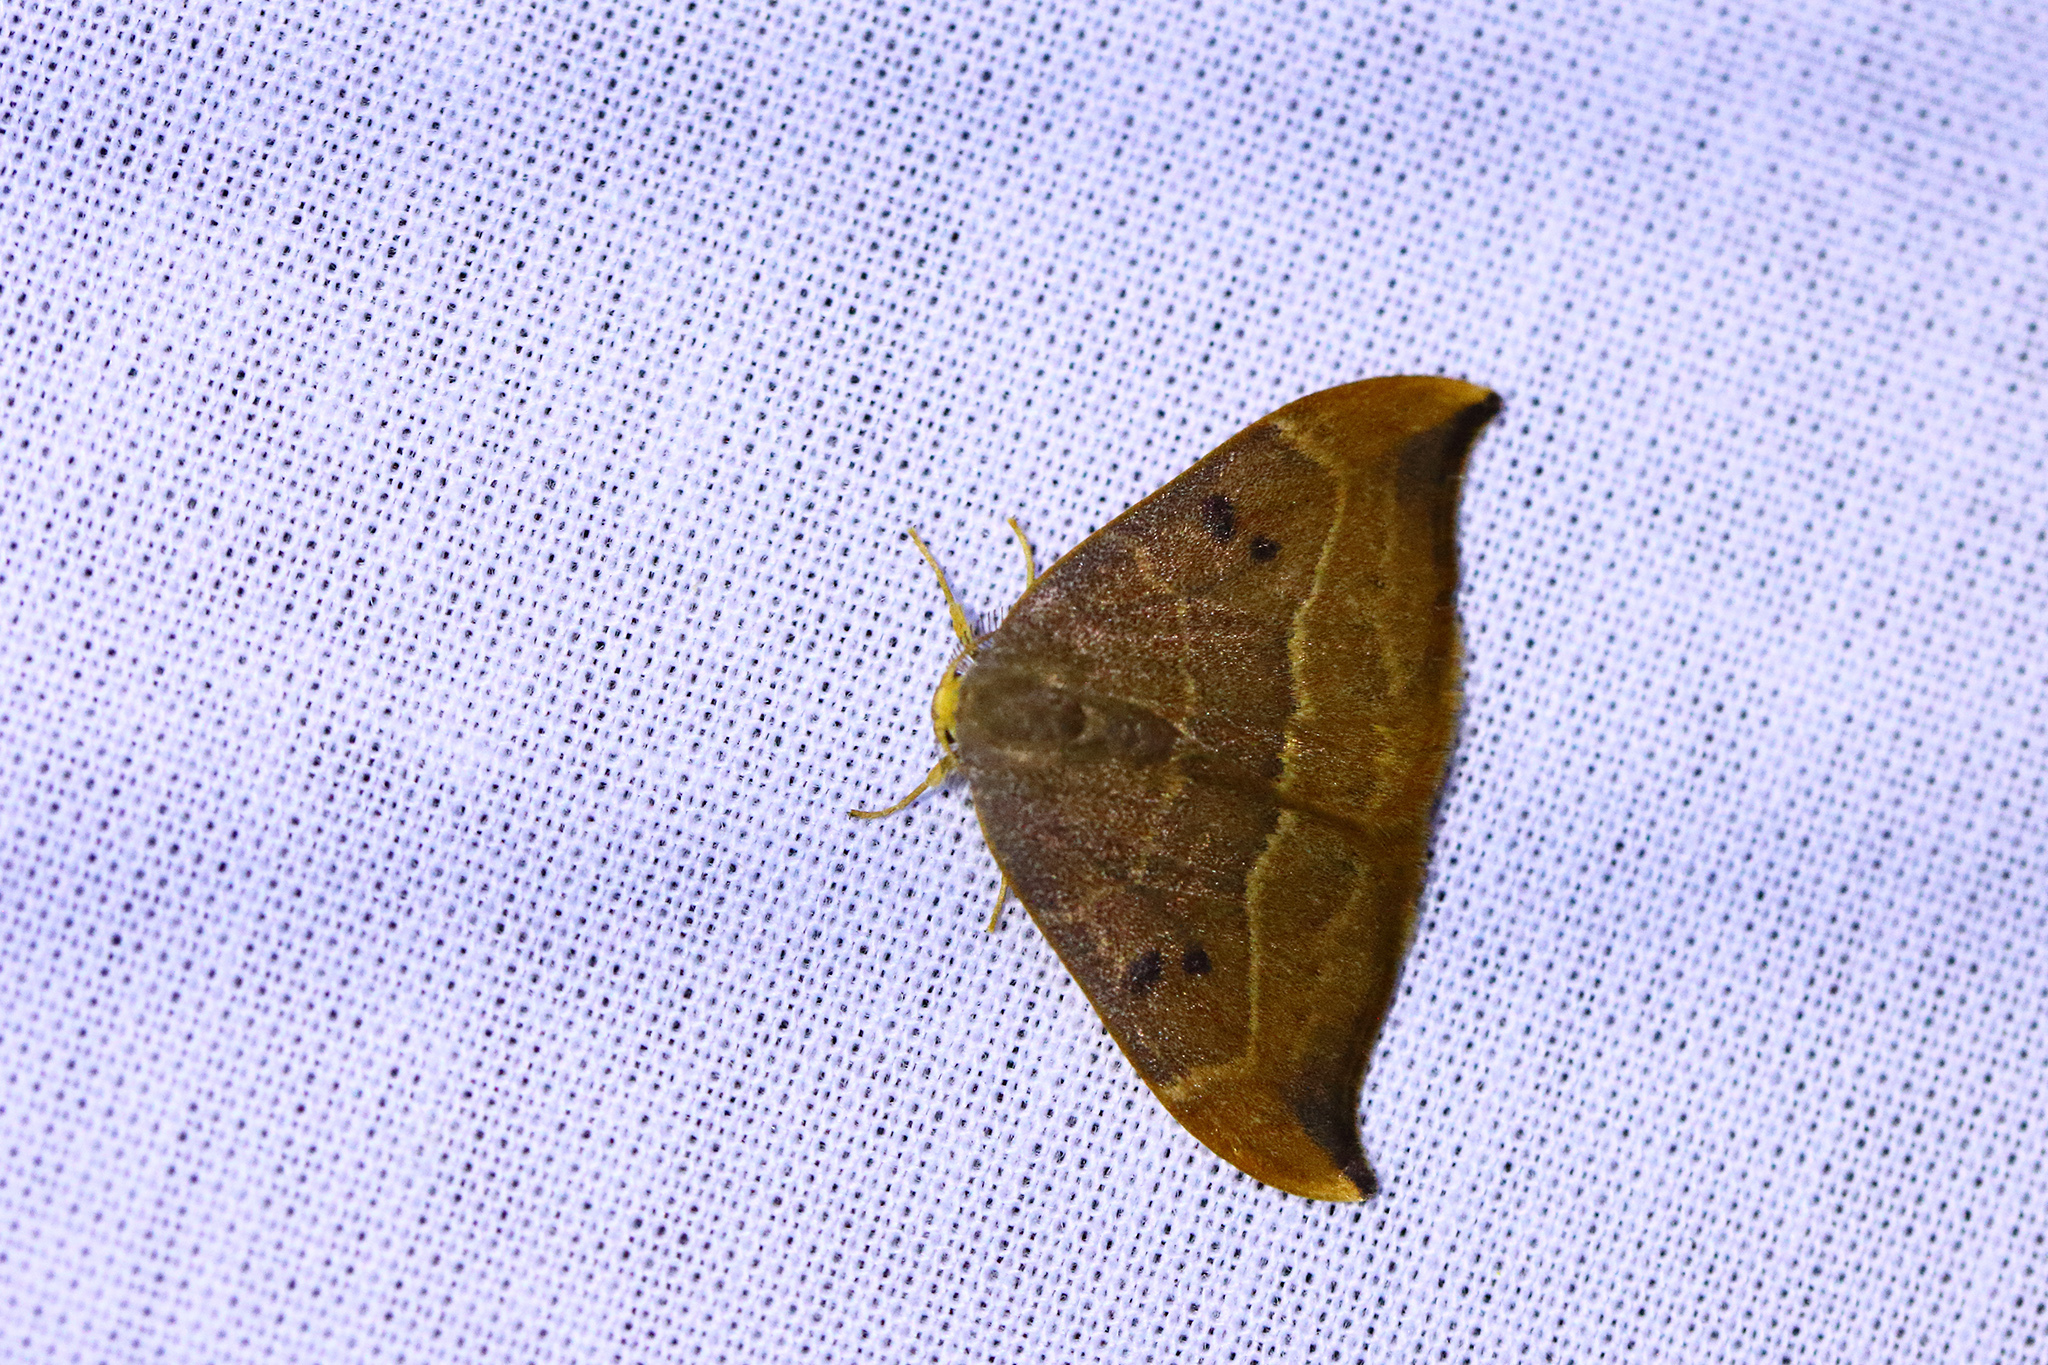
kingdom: Animalia
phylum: Arthropoda
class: Insecta
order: Lepidoptera
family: Drepanidae
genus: Watsonalla
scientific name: Watsonalla binaria
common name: Oak hook-tip
